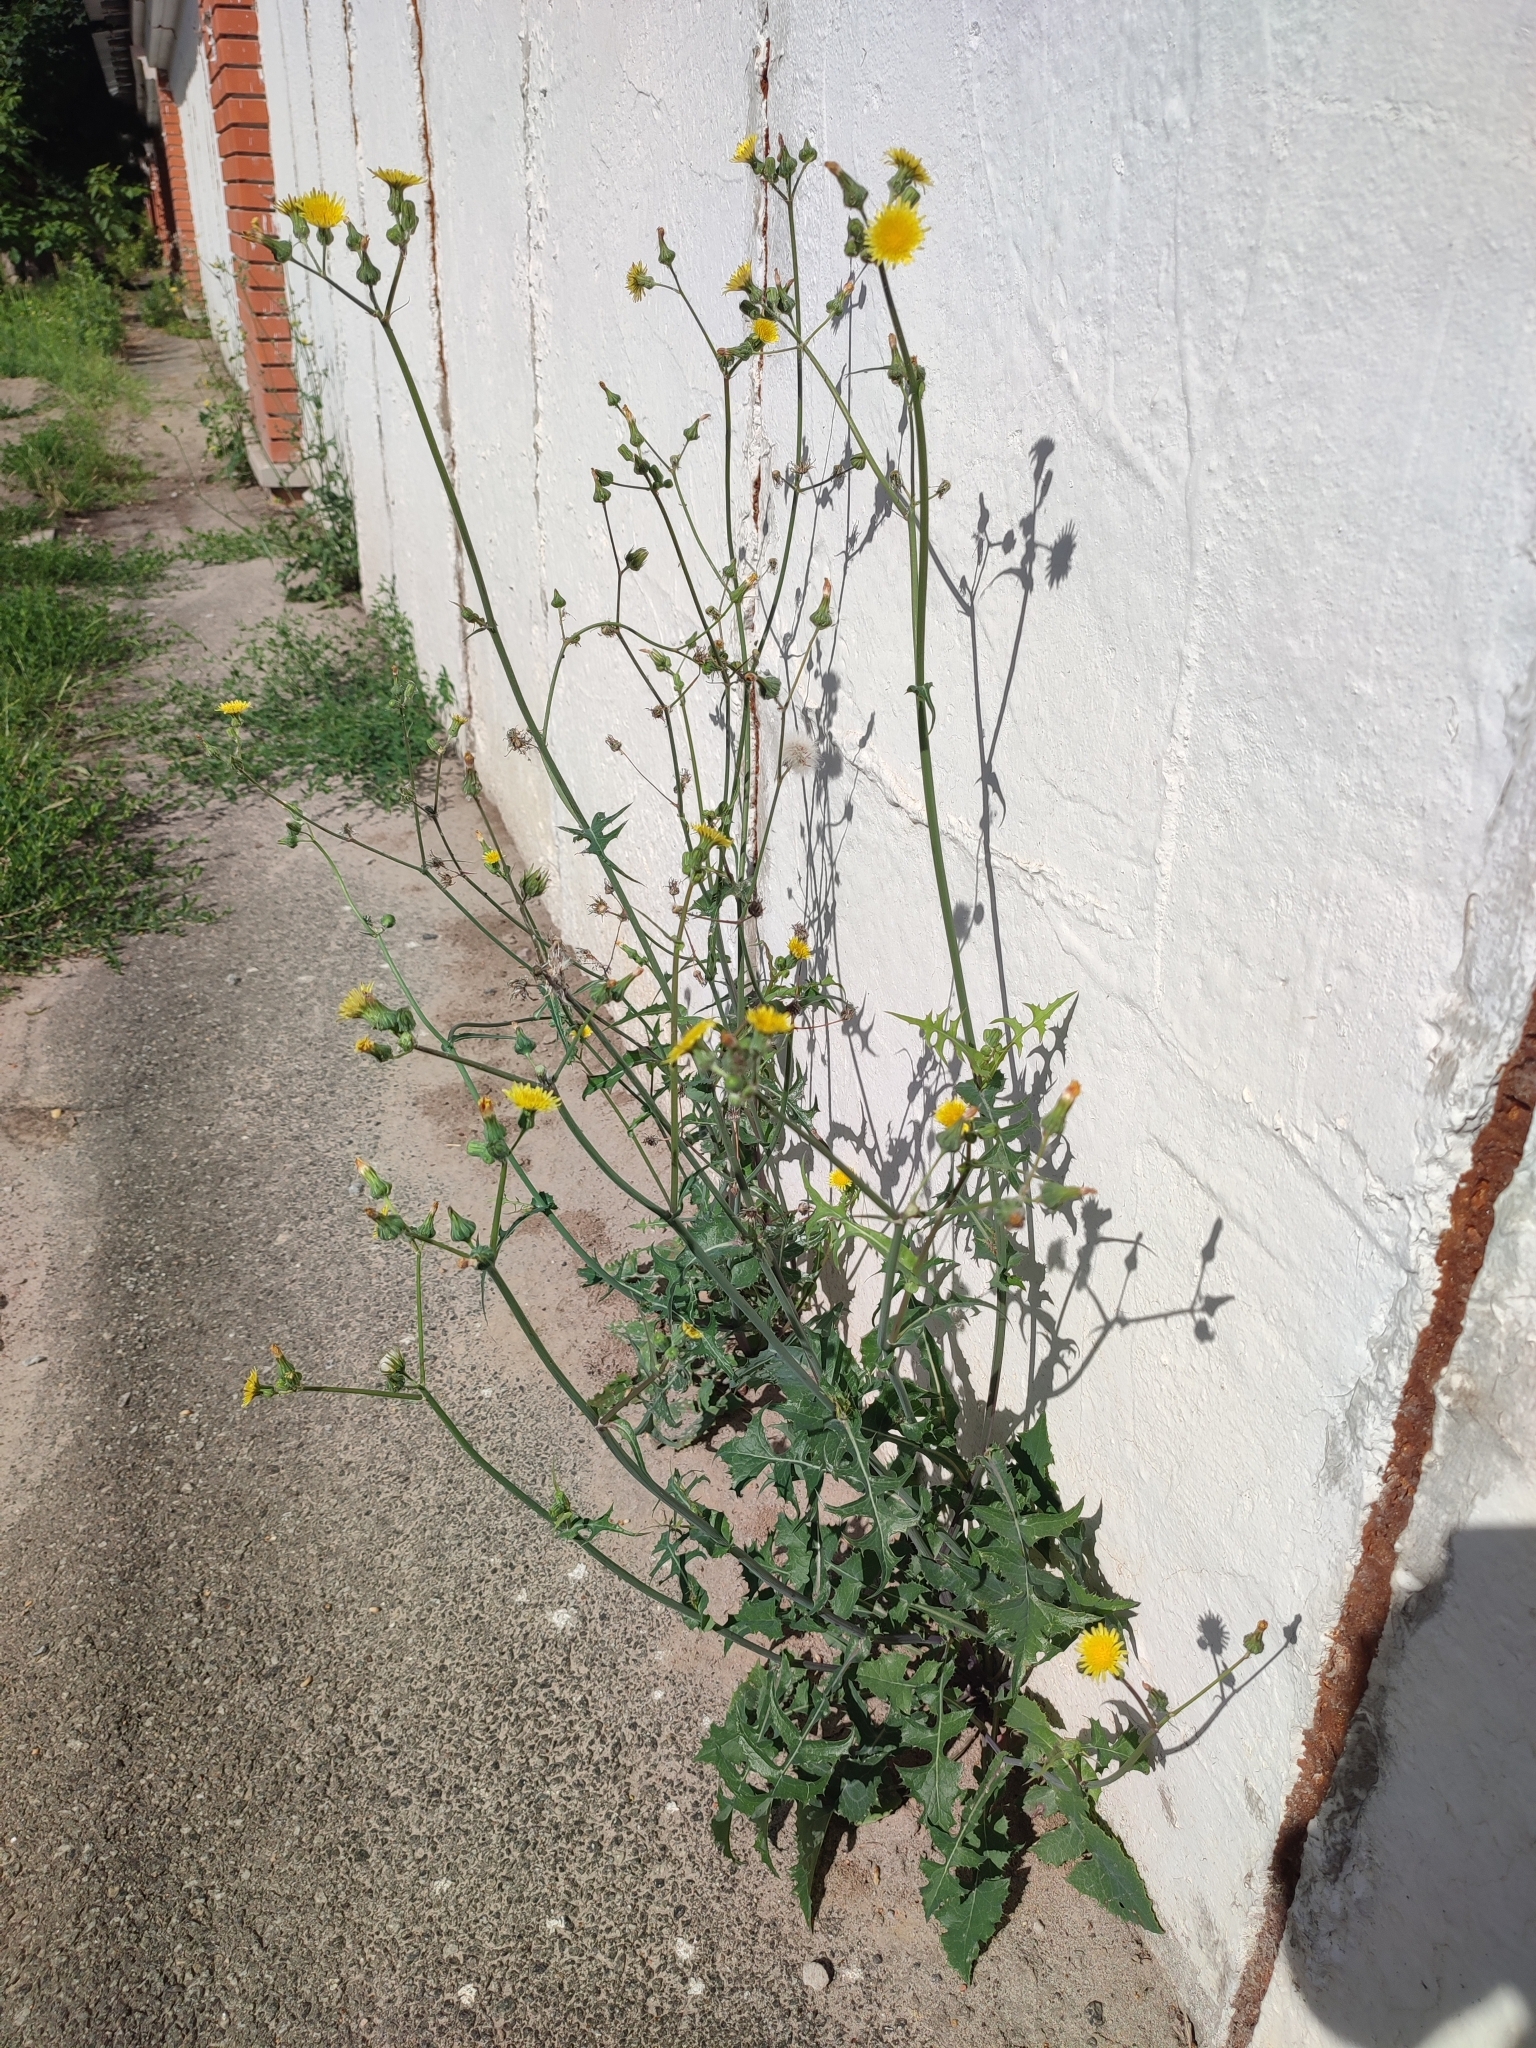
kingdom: Plantae
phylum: Tracheophyta
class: Magnoliopsida
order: Asterales
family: Asteraceae
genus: Sonchus
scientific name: Sonchus oleraceus
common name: Common sowthistle
